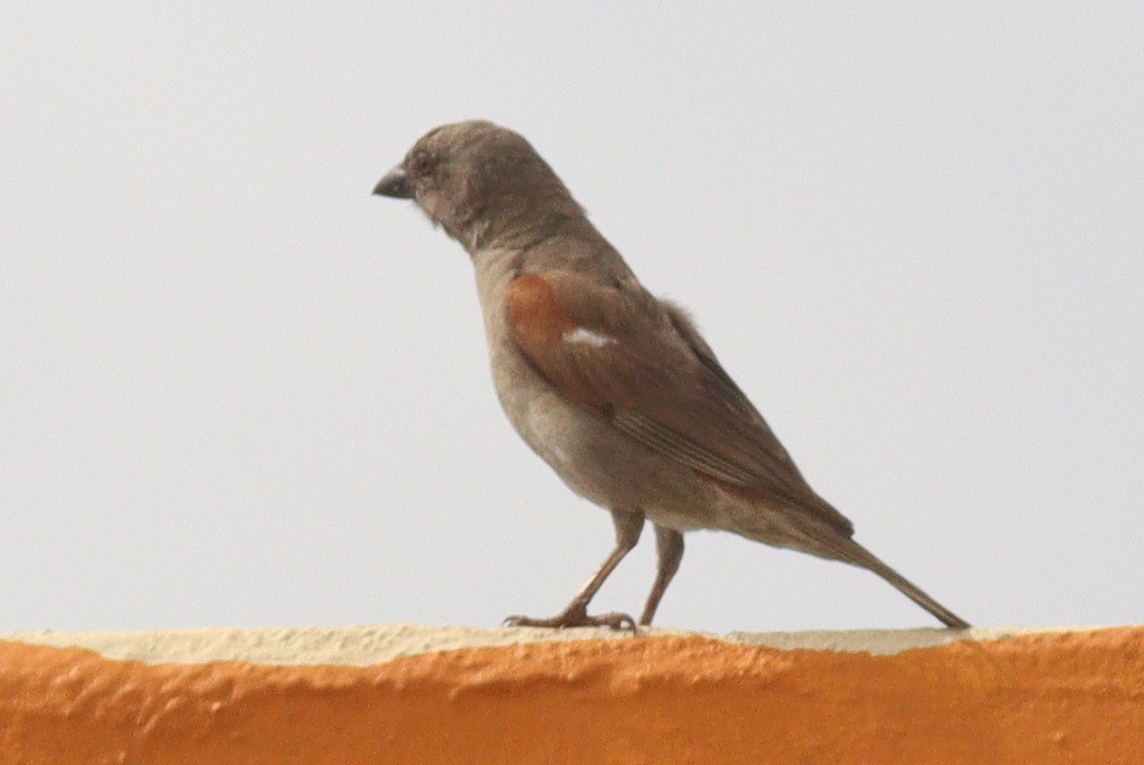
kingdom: Animalia
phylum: Chordata
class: Aves
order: Passeriformes
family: Passeridae
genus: Passer
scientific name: Passer gongonensis
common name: Parrot-billed sparrow
